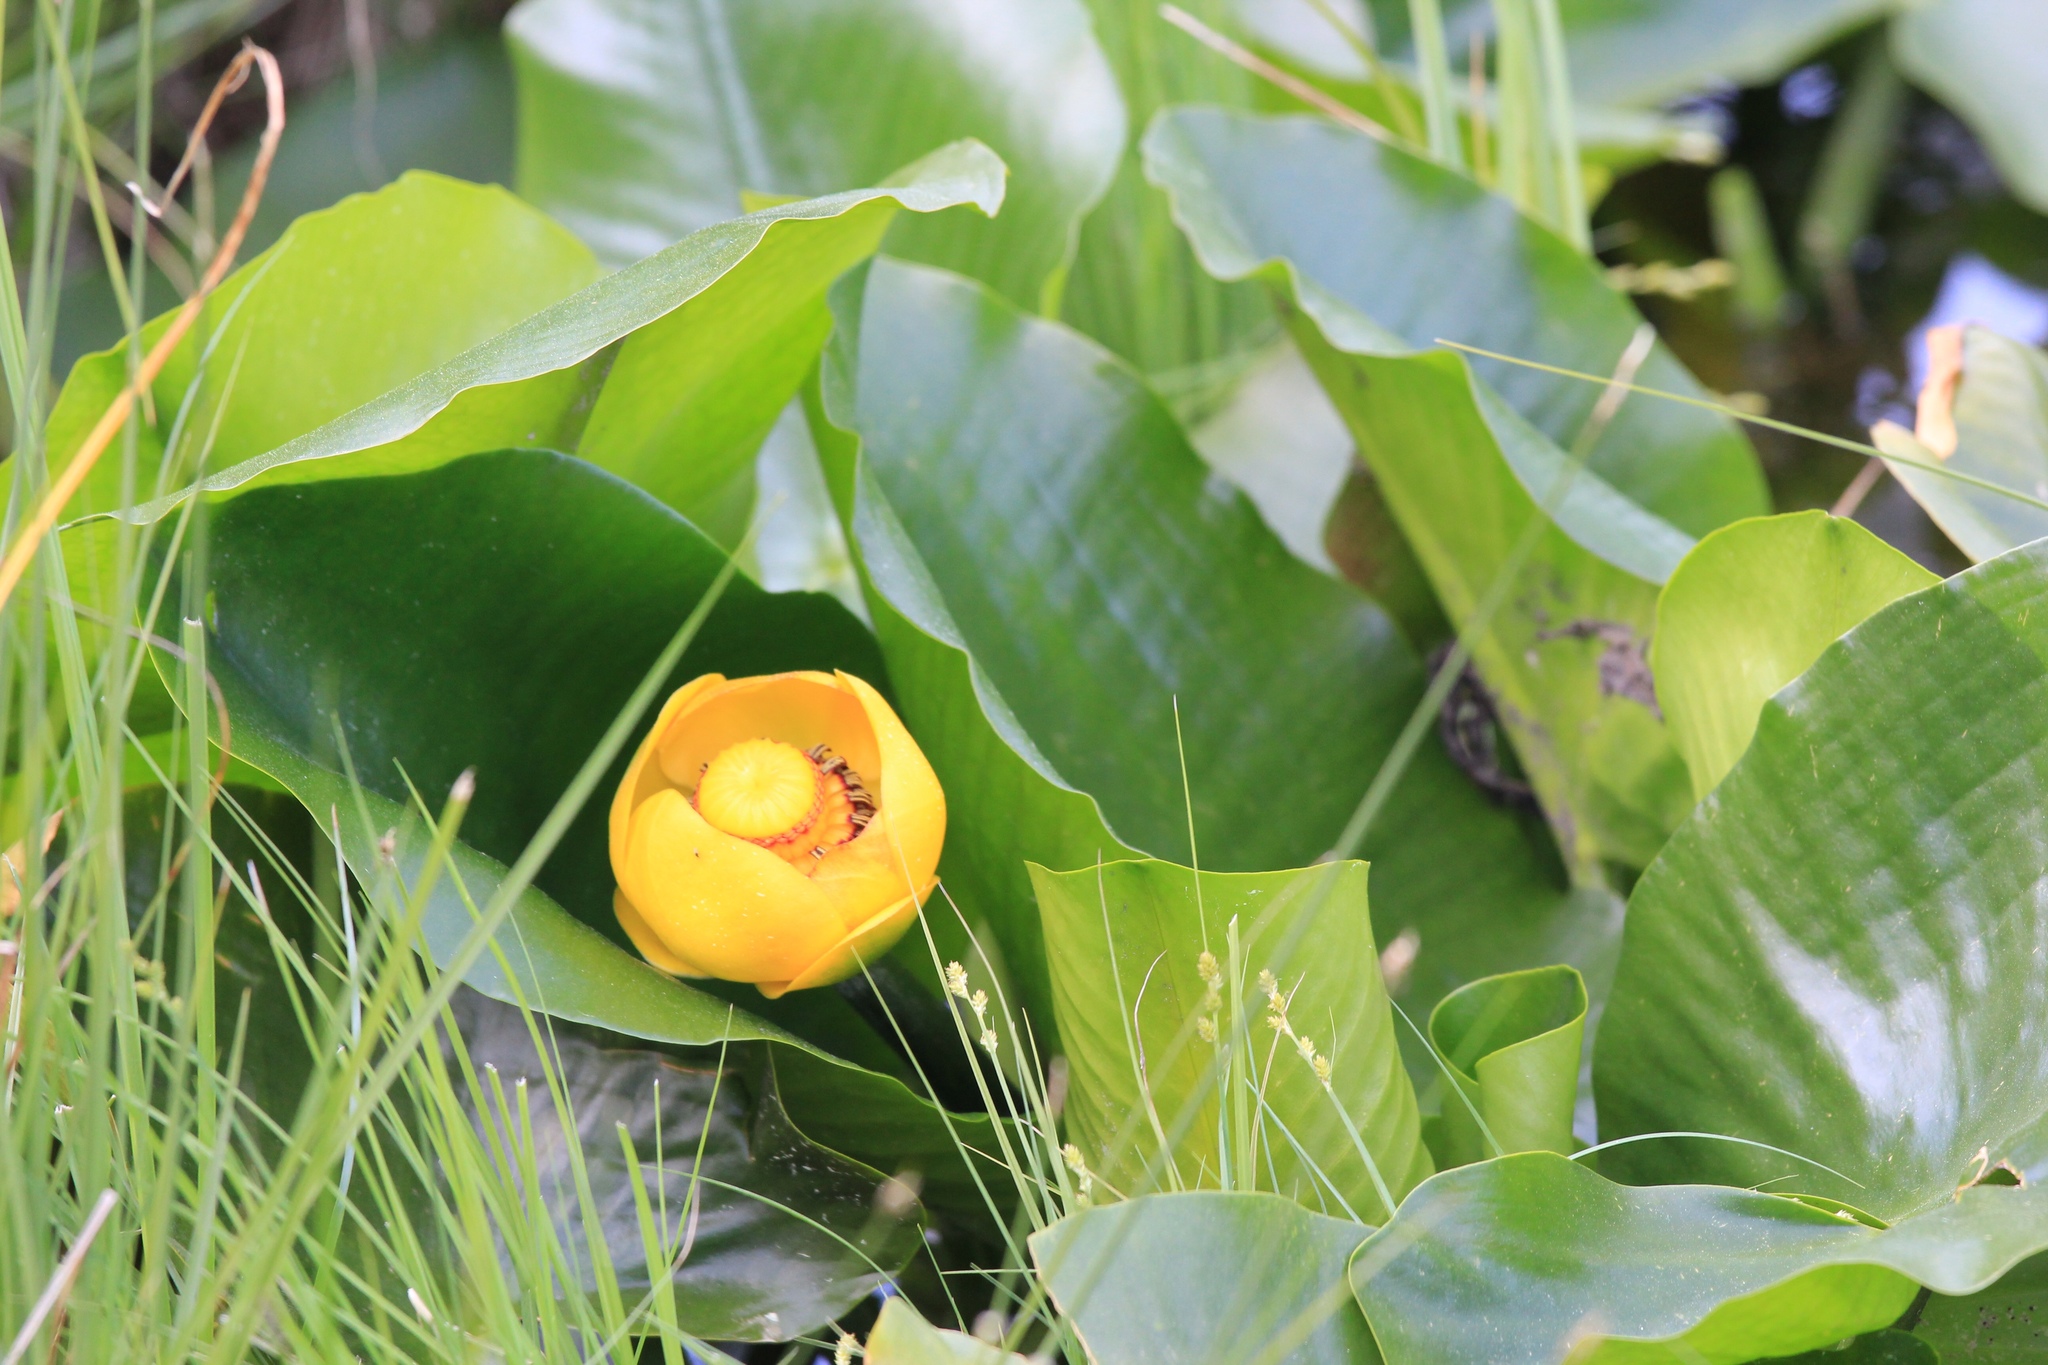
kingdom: Plantae
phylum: Tracheophyta
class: Magnoliopsida
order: Nymphaeales
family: Nymphaeaceae
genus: Nuphar
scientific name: Nuphar polysepala
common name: Rocky mountain cow-lily
